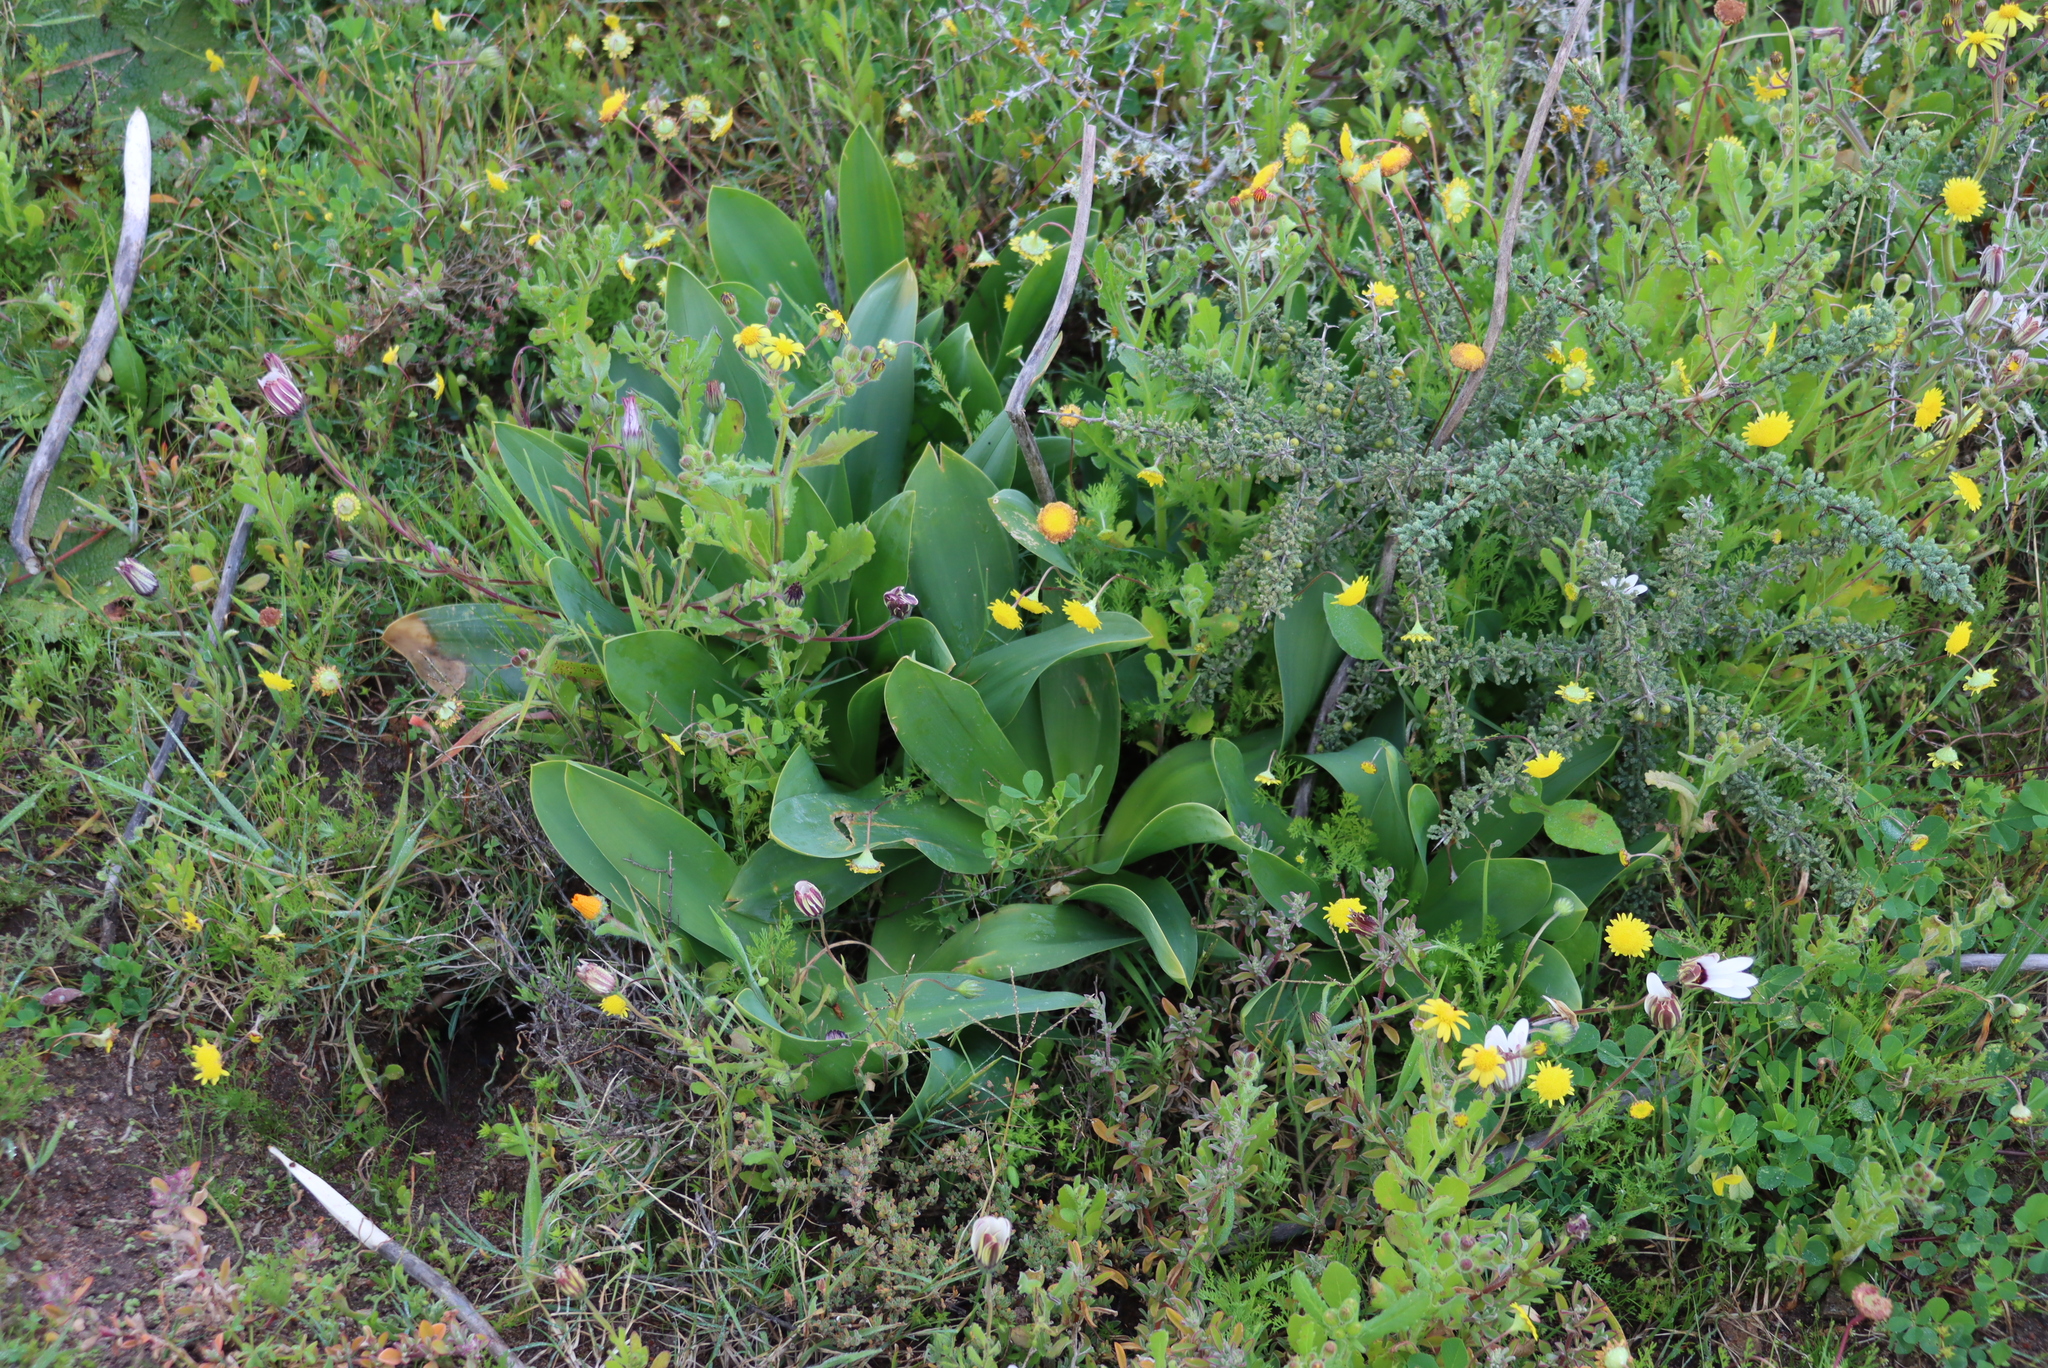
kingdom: Plantae
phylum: Tracheophyta
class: Liliopsida
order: Asparagales
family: Asparagaceae
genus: Drimia
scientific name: Drimia capensis
